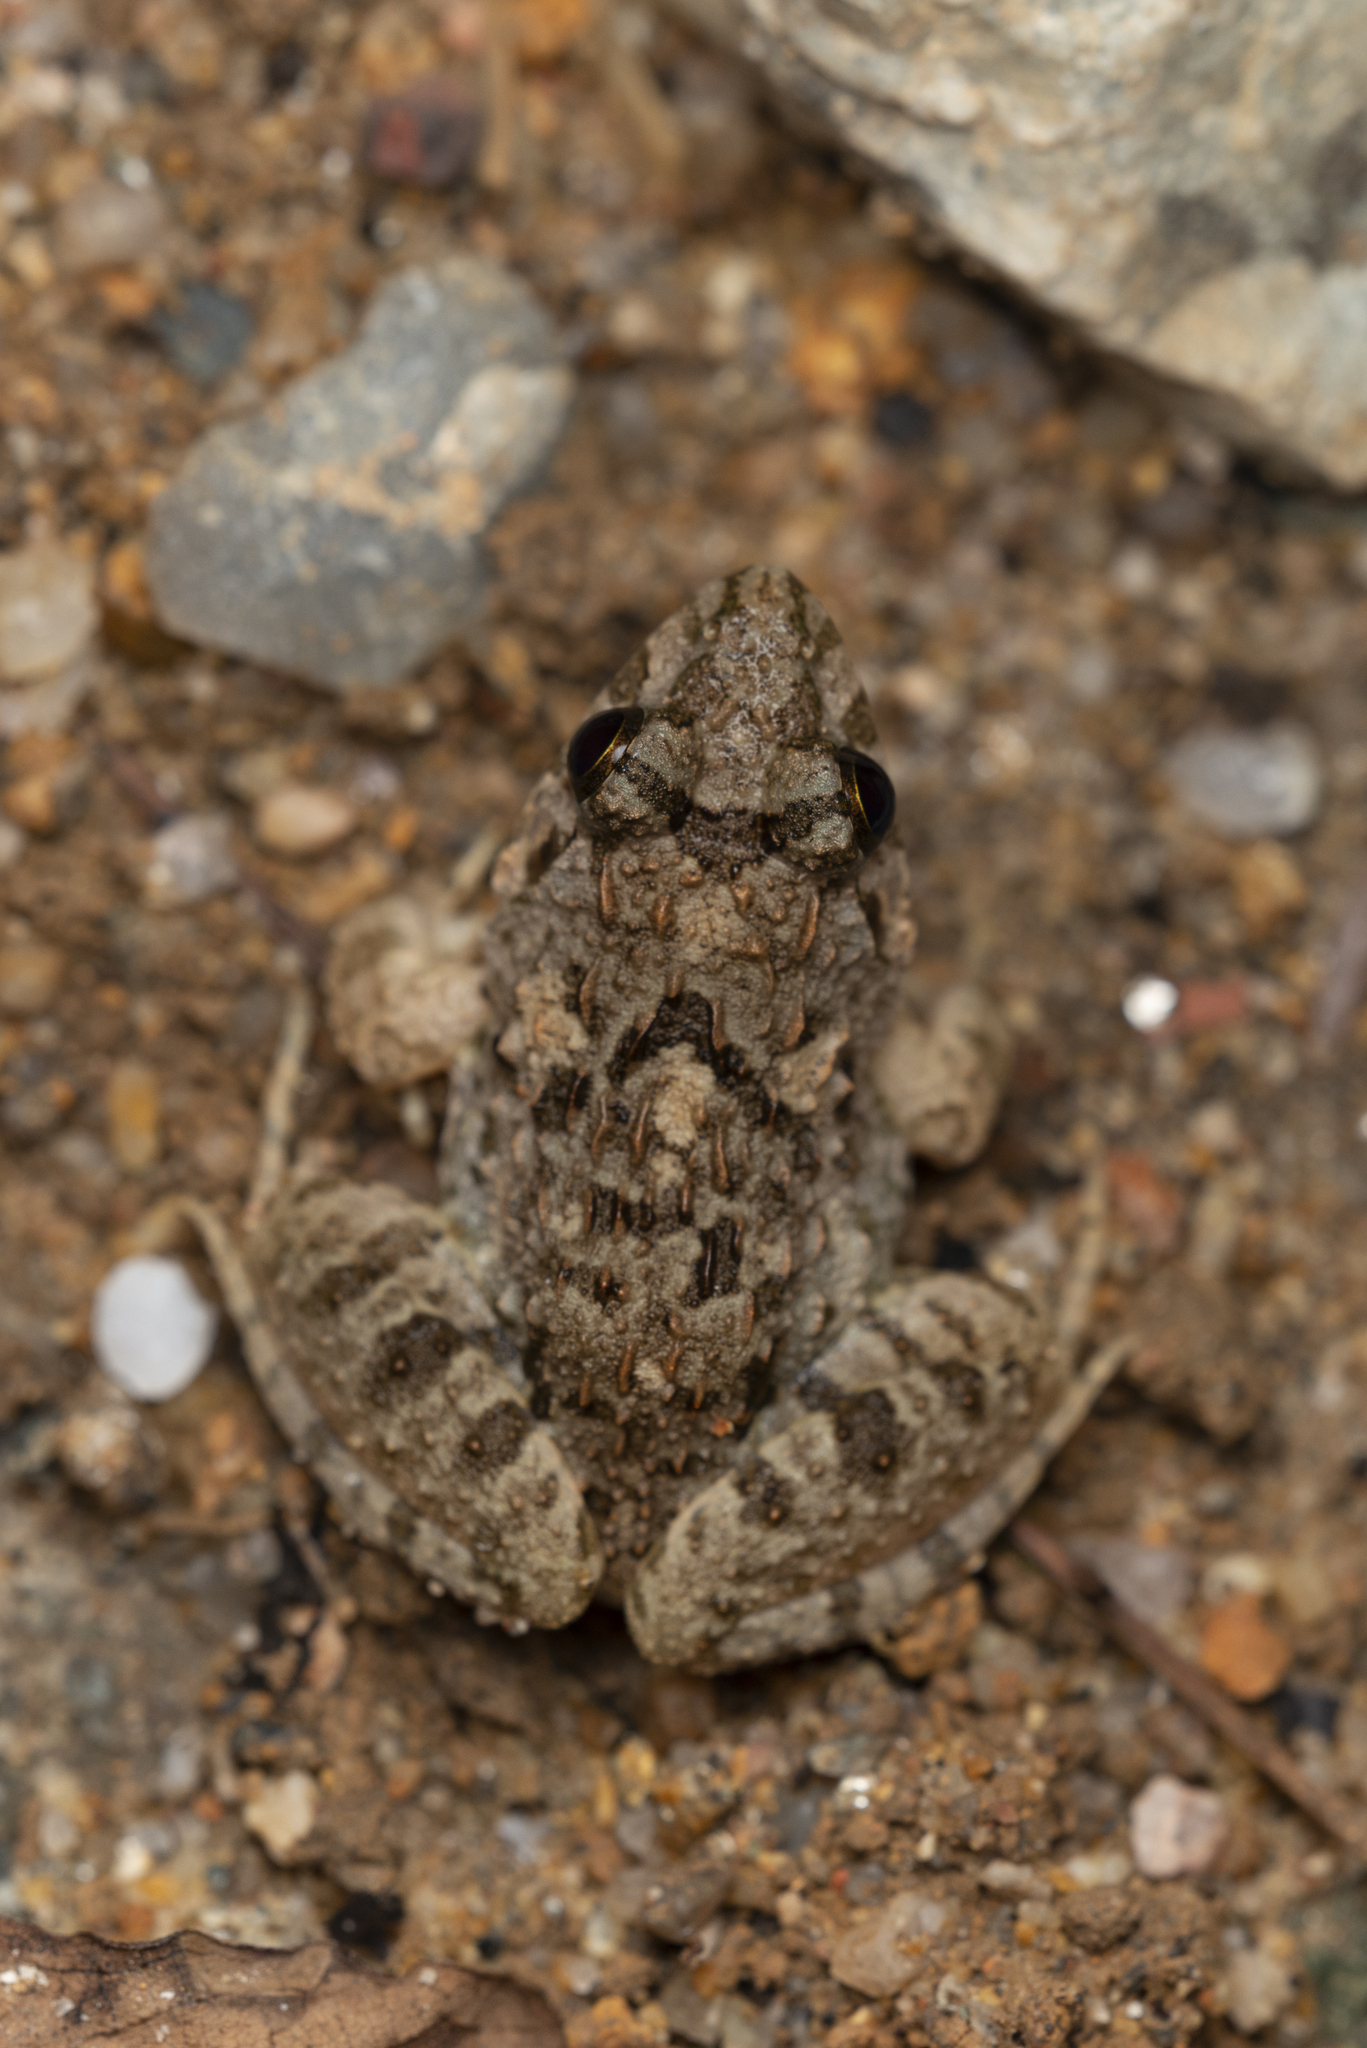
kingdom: Animalia
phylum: Chordata
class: Amphibia
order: Anura
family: Dicroglossidae
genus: Fejervarya
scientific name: Fejervarya multistriata
